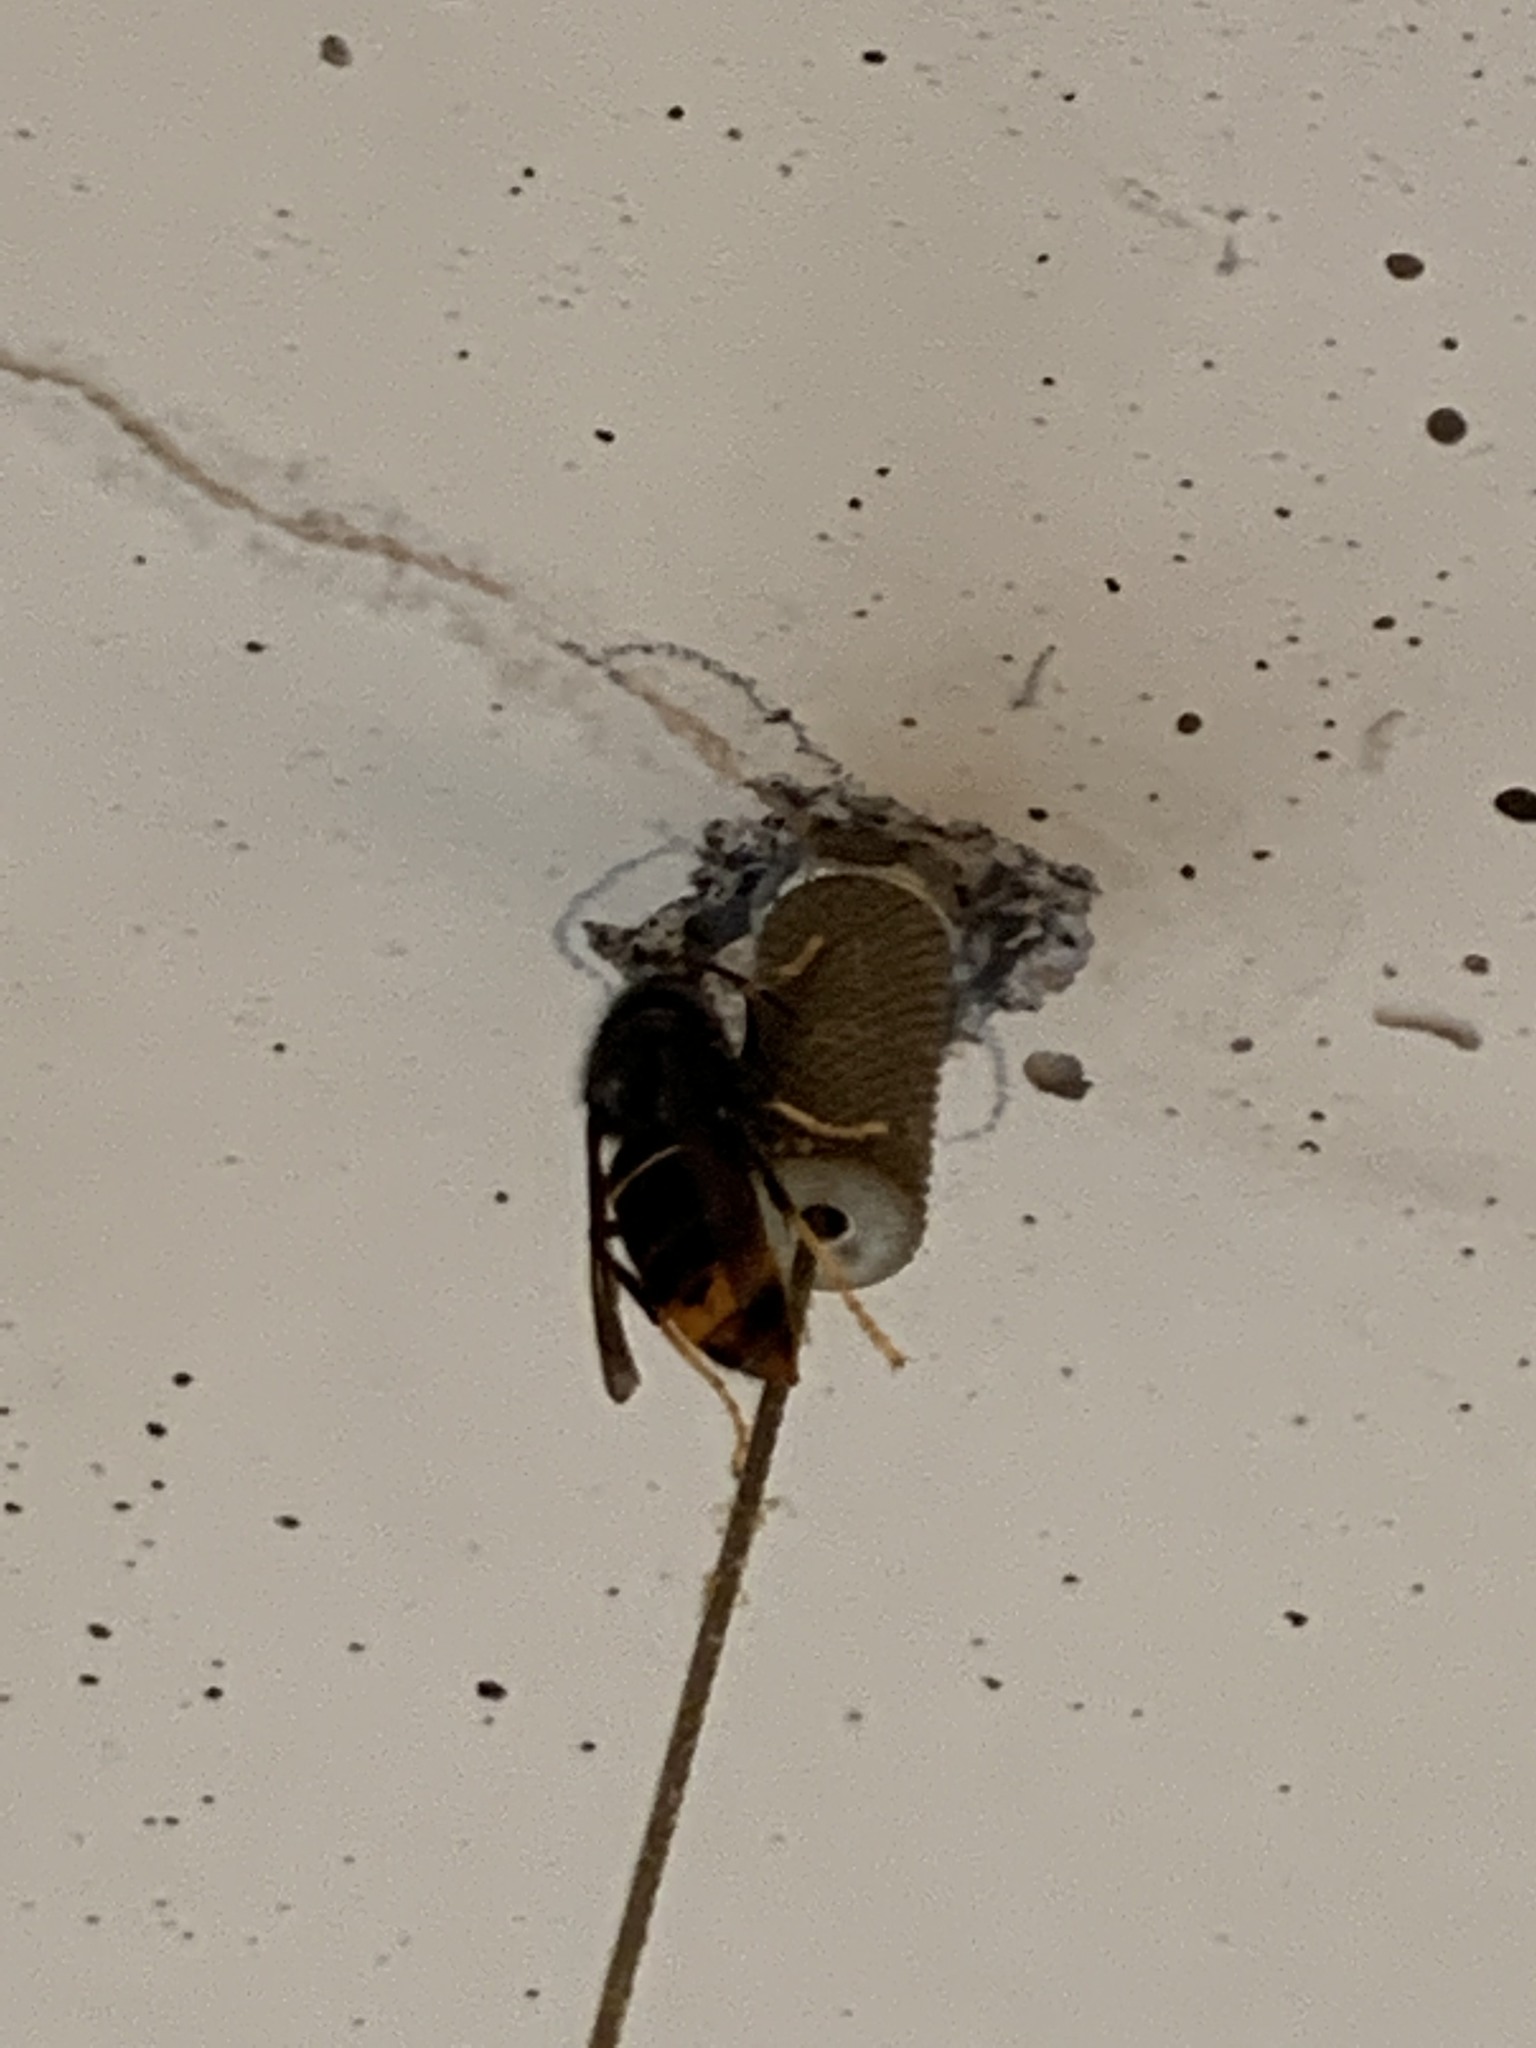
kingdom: Animalia
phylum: Arthropoda
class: Insecta
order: Hymenoptera
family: Vespidae
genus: Vespa
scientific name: Vespa velutina
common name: Asian hornet
